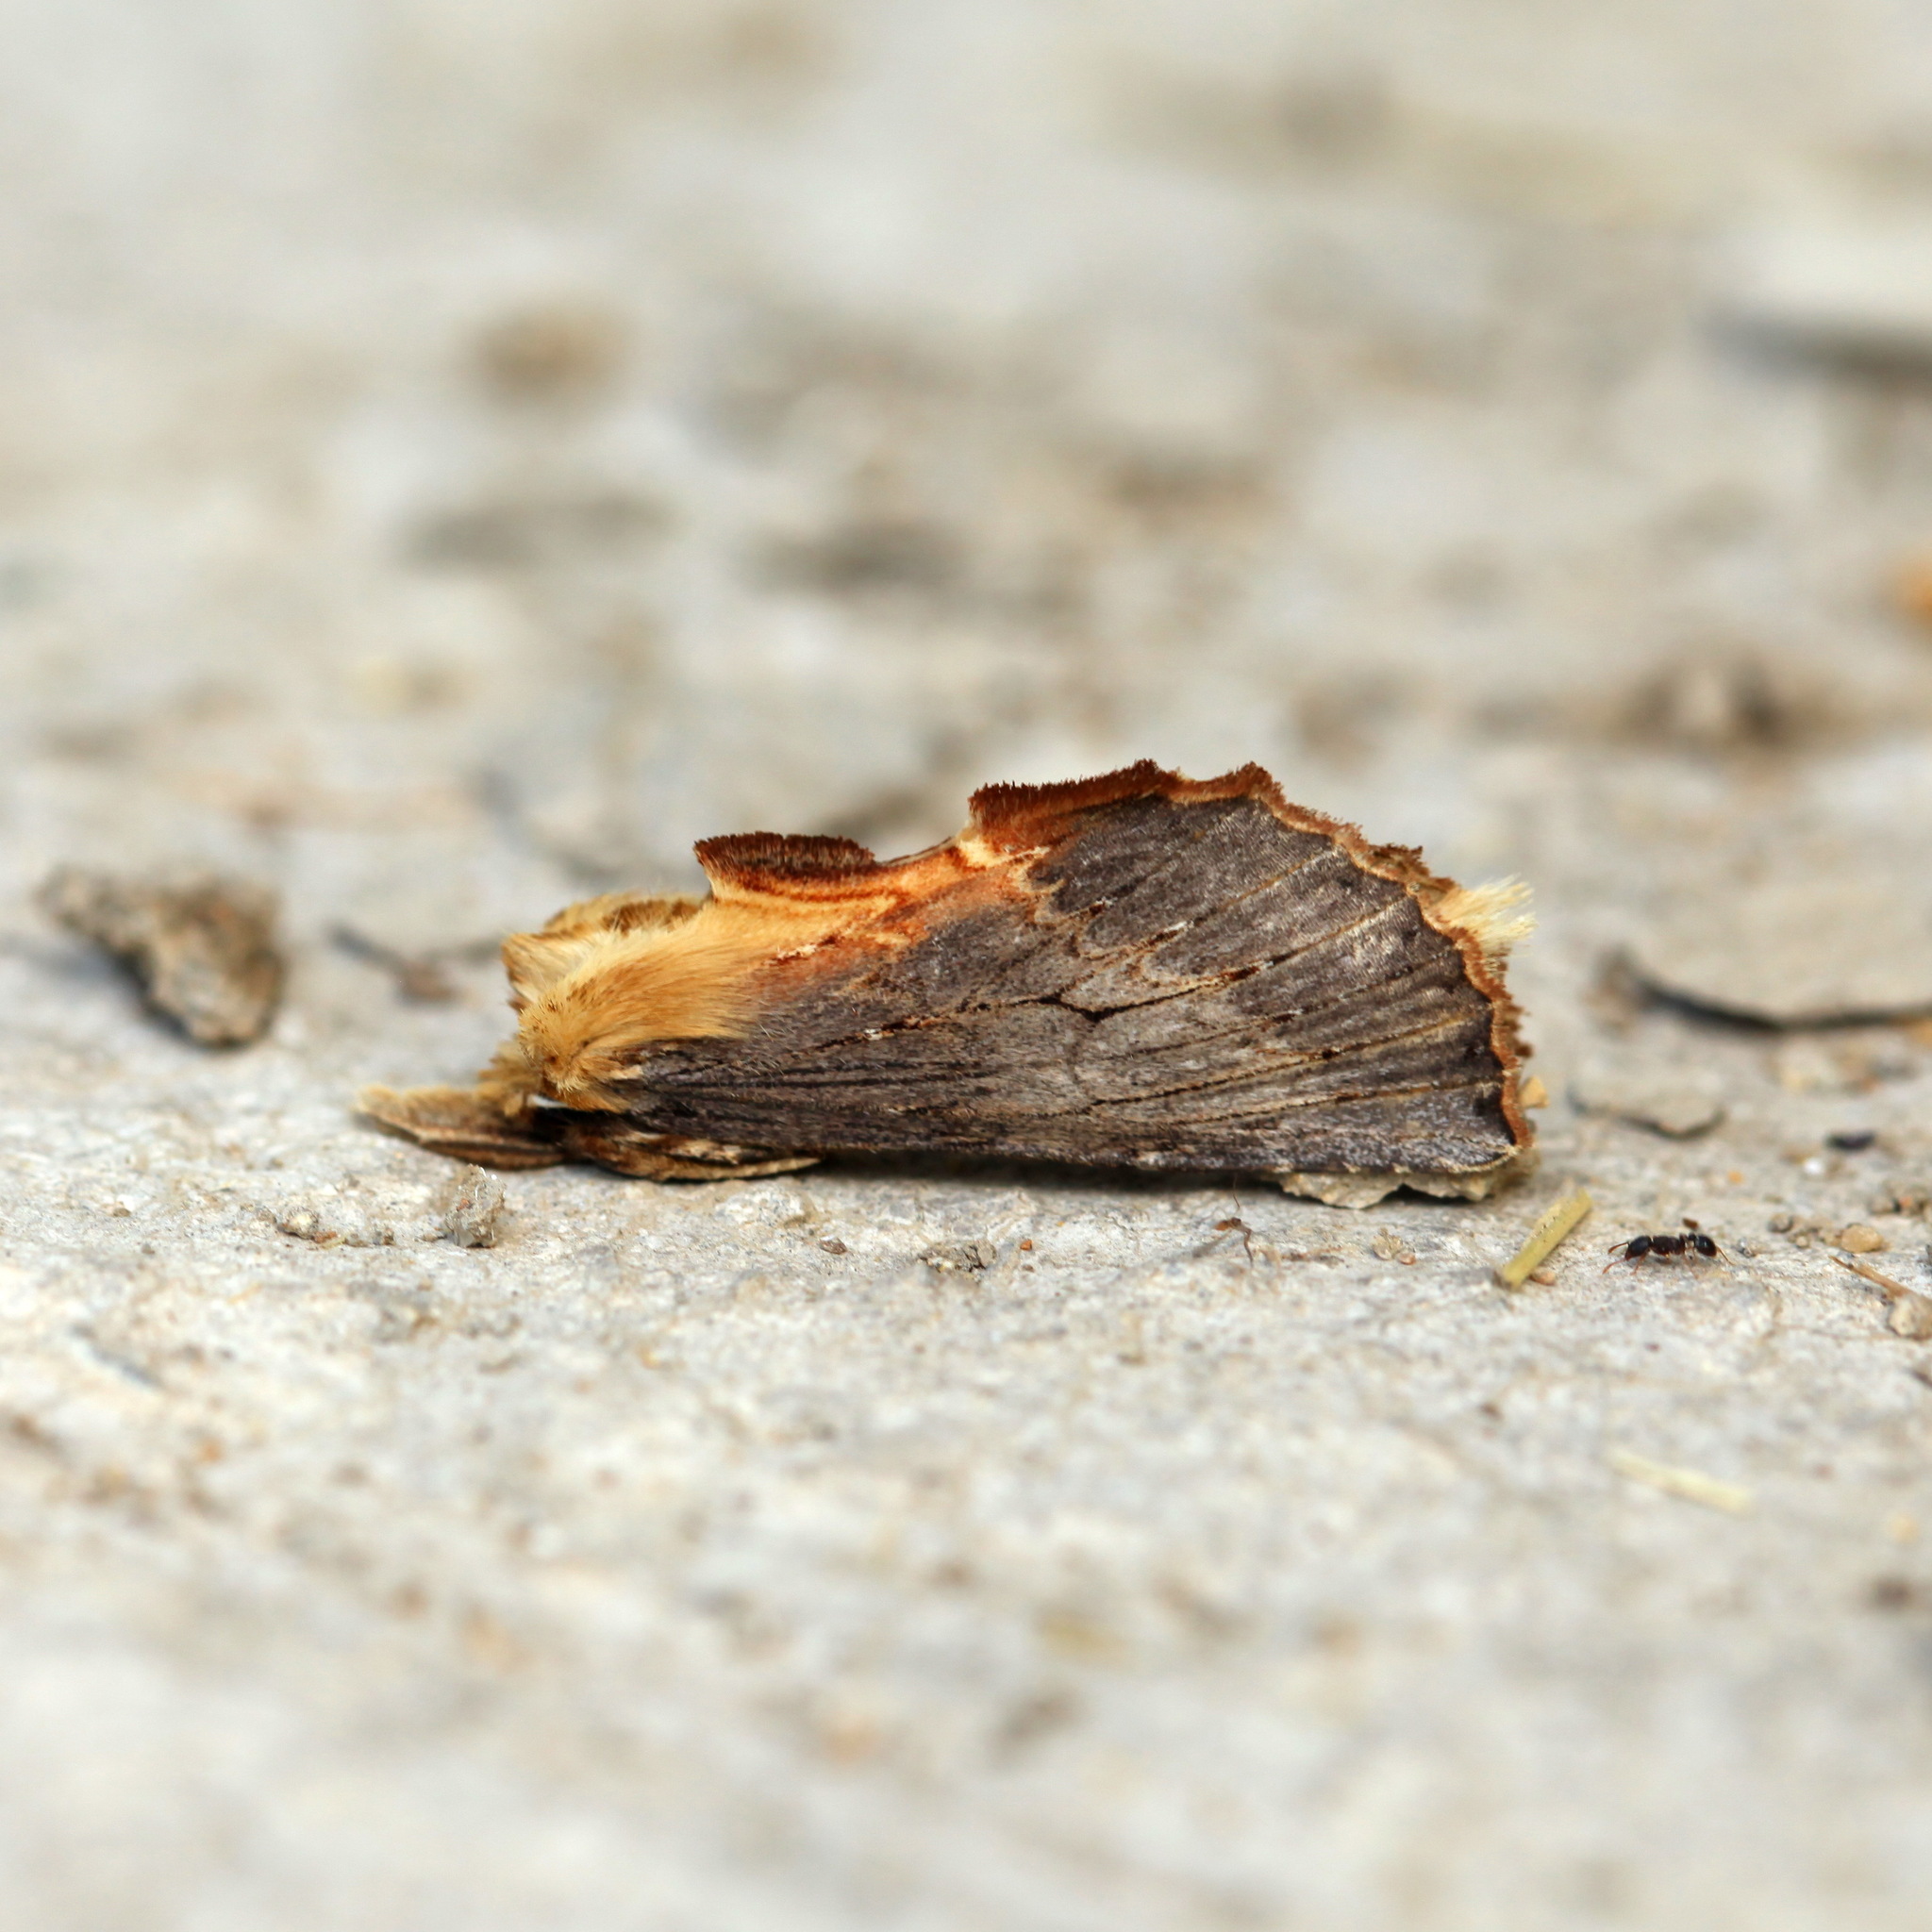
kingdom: Animalia
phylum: Arthropoda
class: Insecta
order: Lepidoptera
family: Notodontidae
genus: Pterostoma
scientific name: Pterostoma griseum
